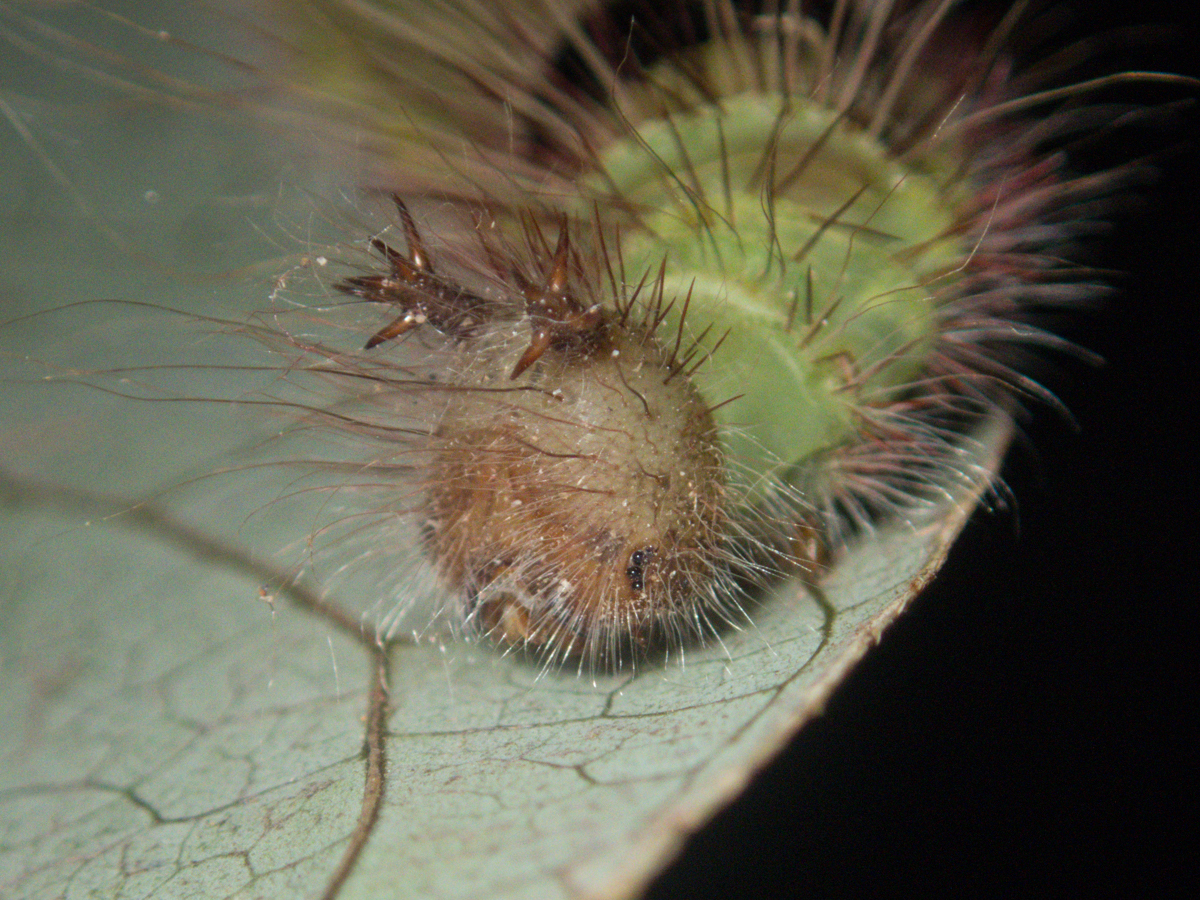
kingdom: Animalia
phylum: Arthropoda
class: Insecta
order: Lepidoptera
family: Nymphalidae
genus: Amathusia
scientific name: Amathusia phidippus
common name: Palm king
